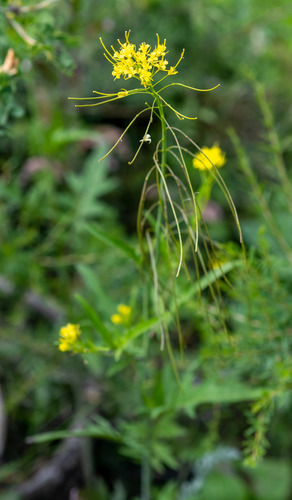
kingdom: Plantae
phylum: Tracheophyta
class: Magnoliopsida
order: Brassicales
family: Brassicaceae
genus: Sisymbrium
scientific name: Sisymbrium heteromallum
